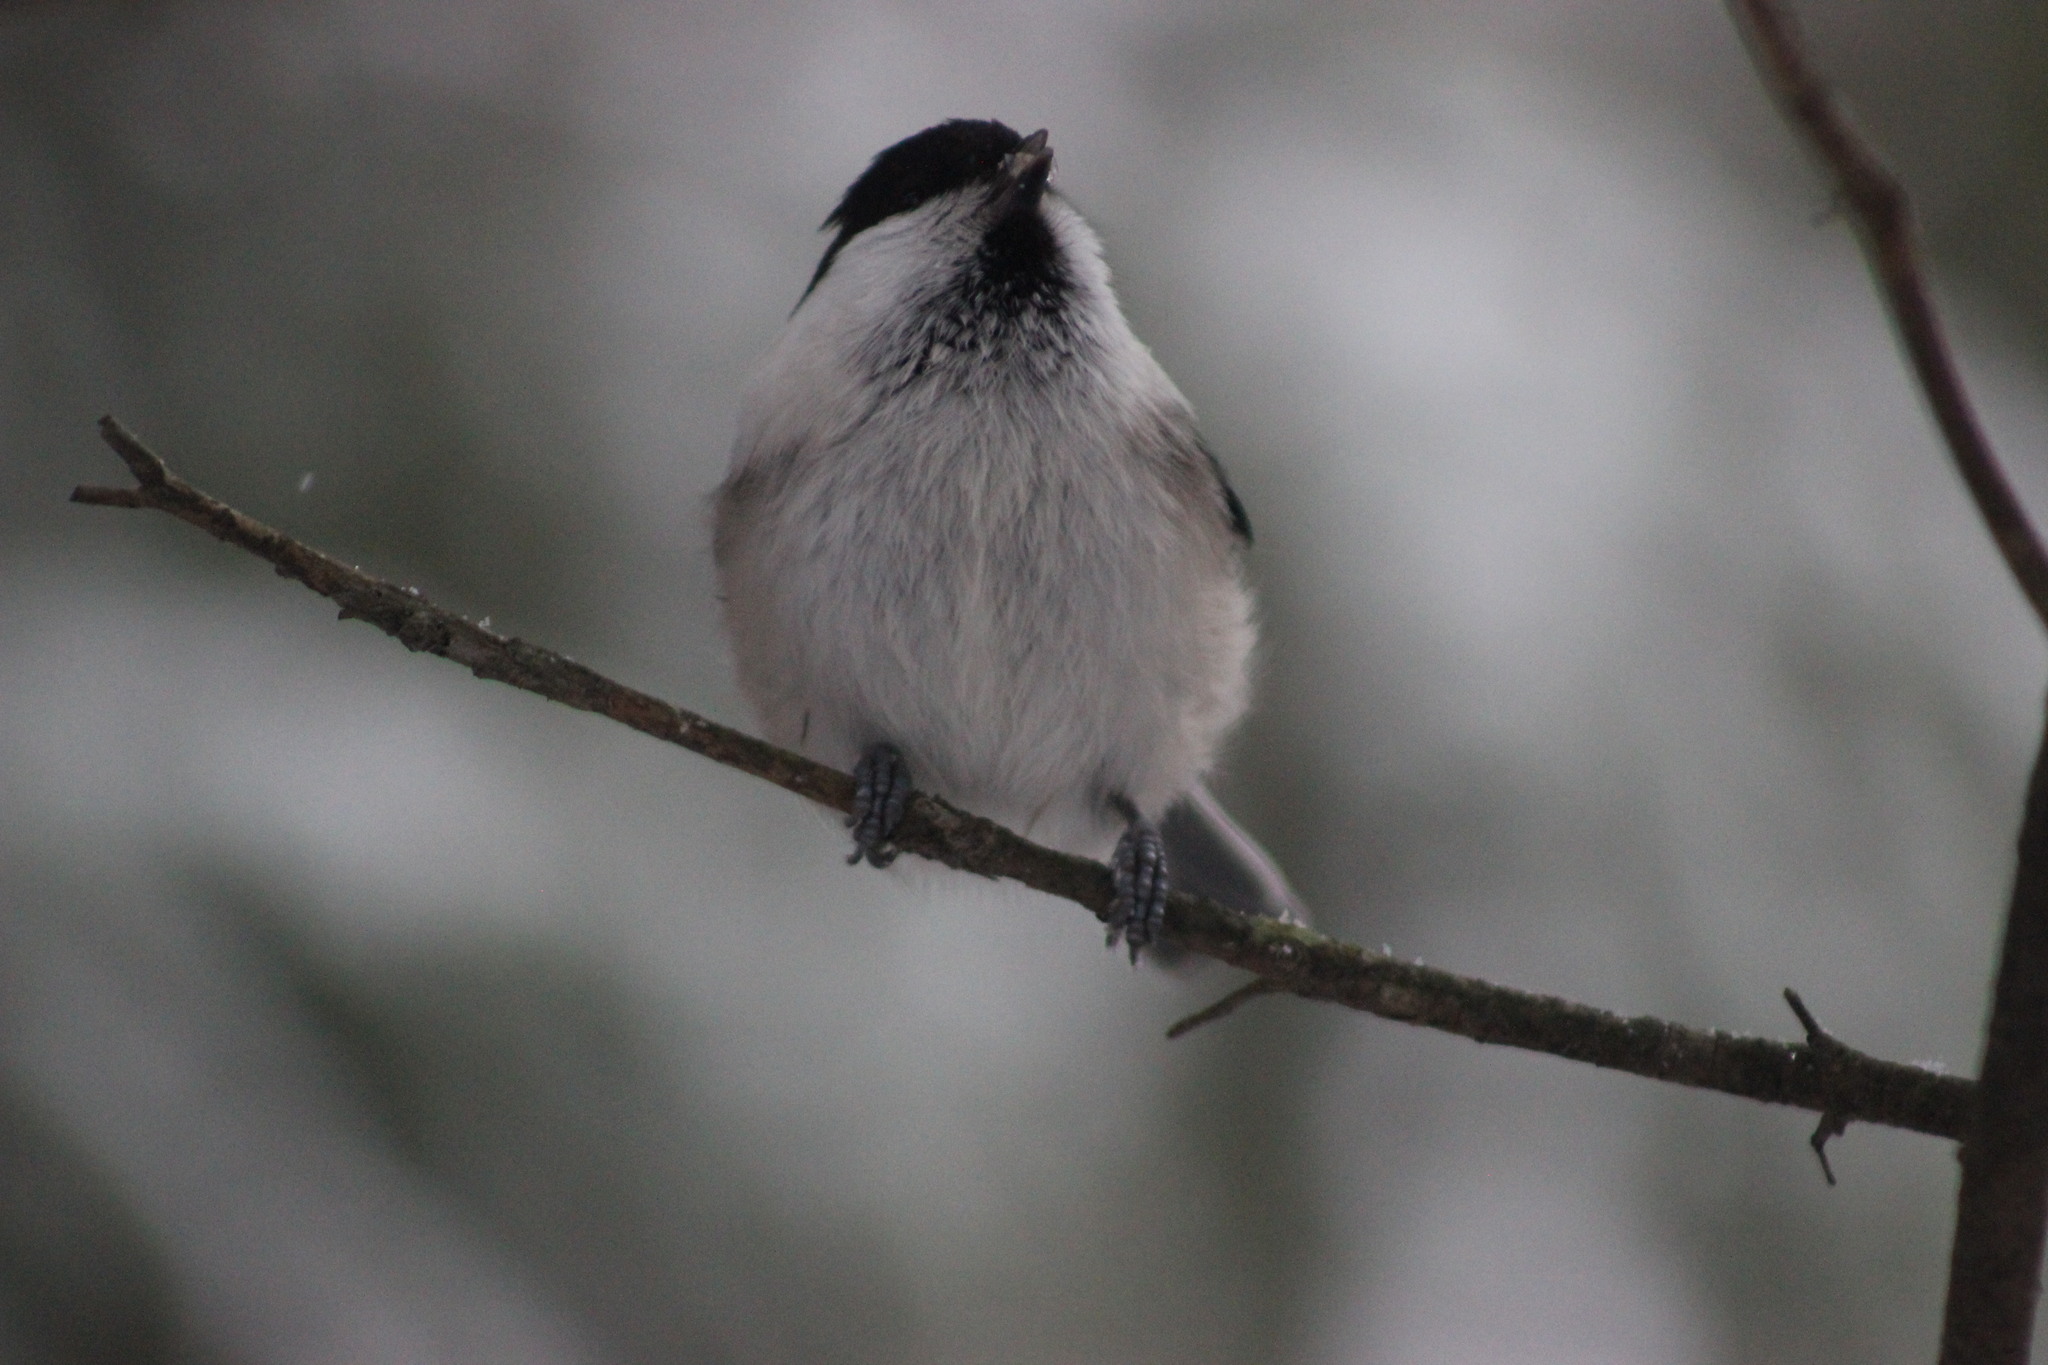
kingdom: Animalia
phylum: Chordata
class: Aves
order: Passeriformes
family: Paridae
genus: Poecile
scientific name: Poecile montanus
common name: Willow tit
